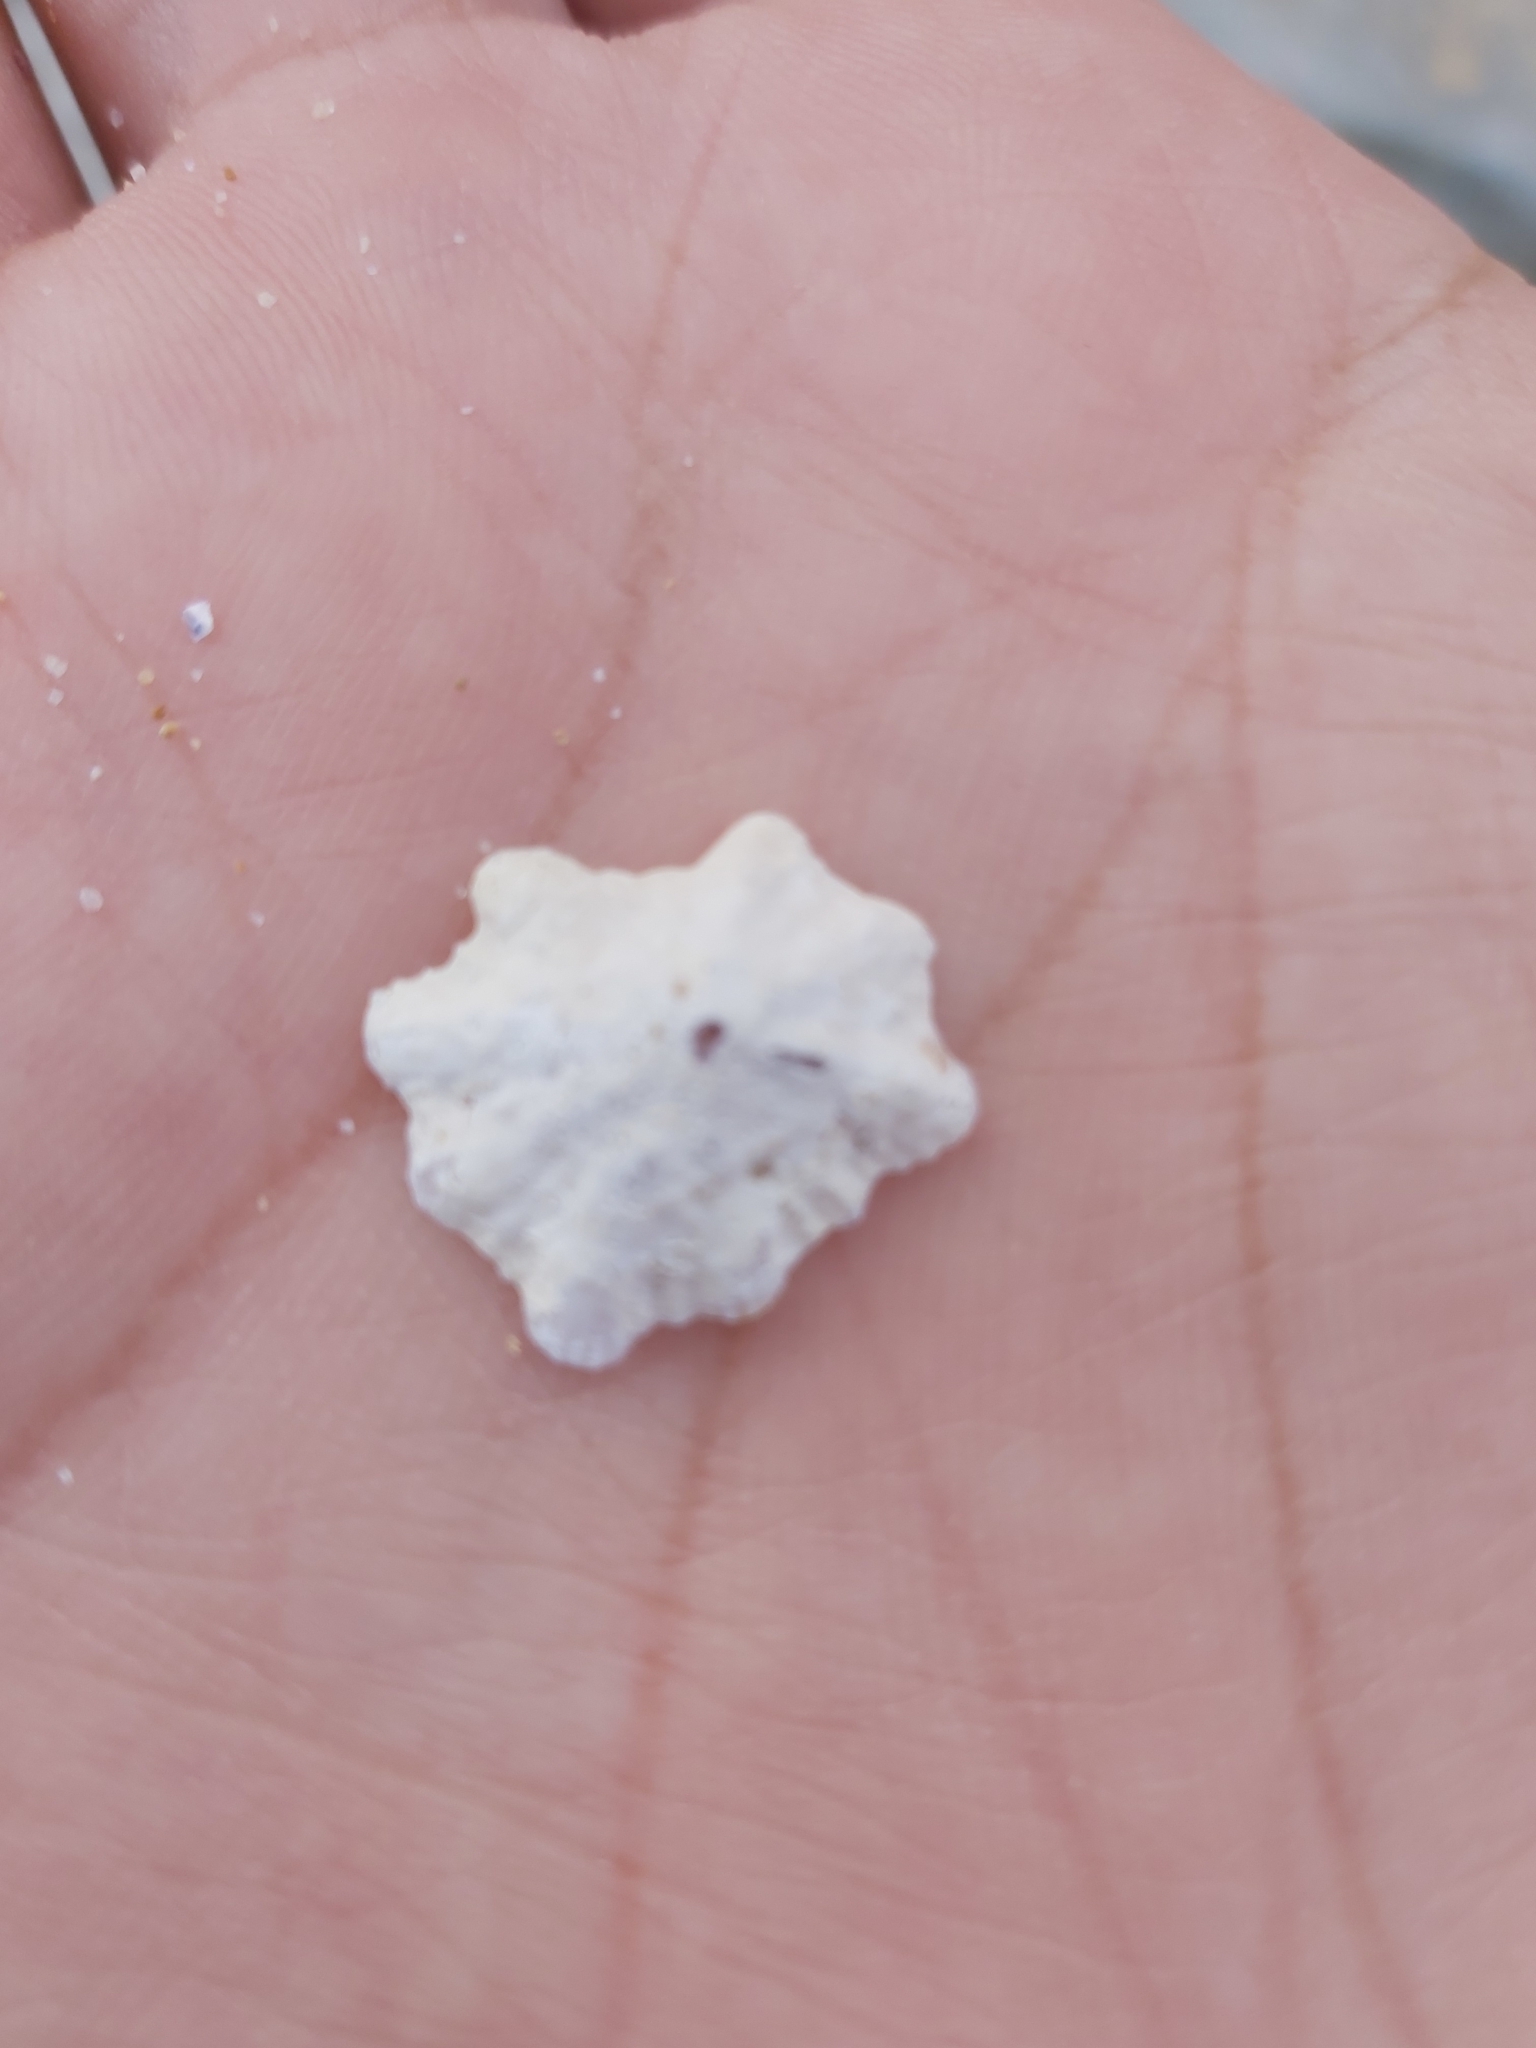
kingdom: Animalia
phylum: Mollusca
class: Gastropoda
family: Patellidae
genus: Scutellastra
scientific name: Scutellastra chapmani
